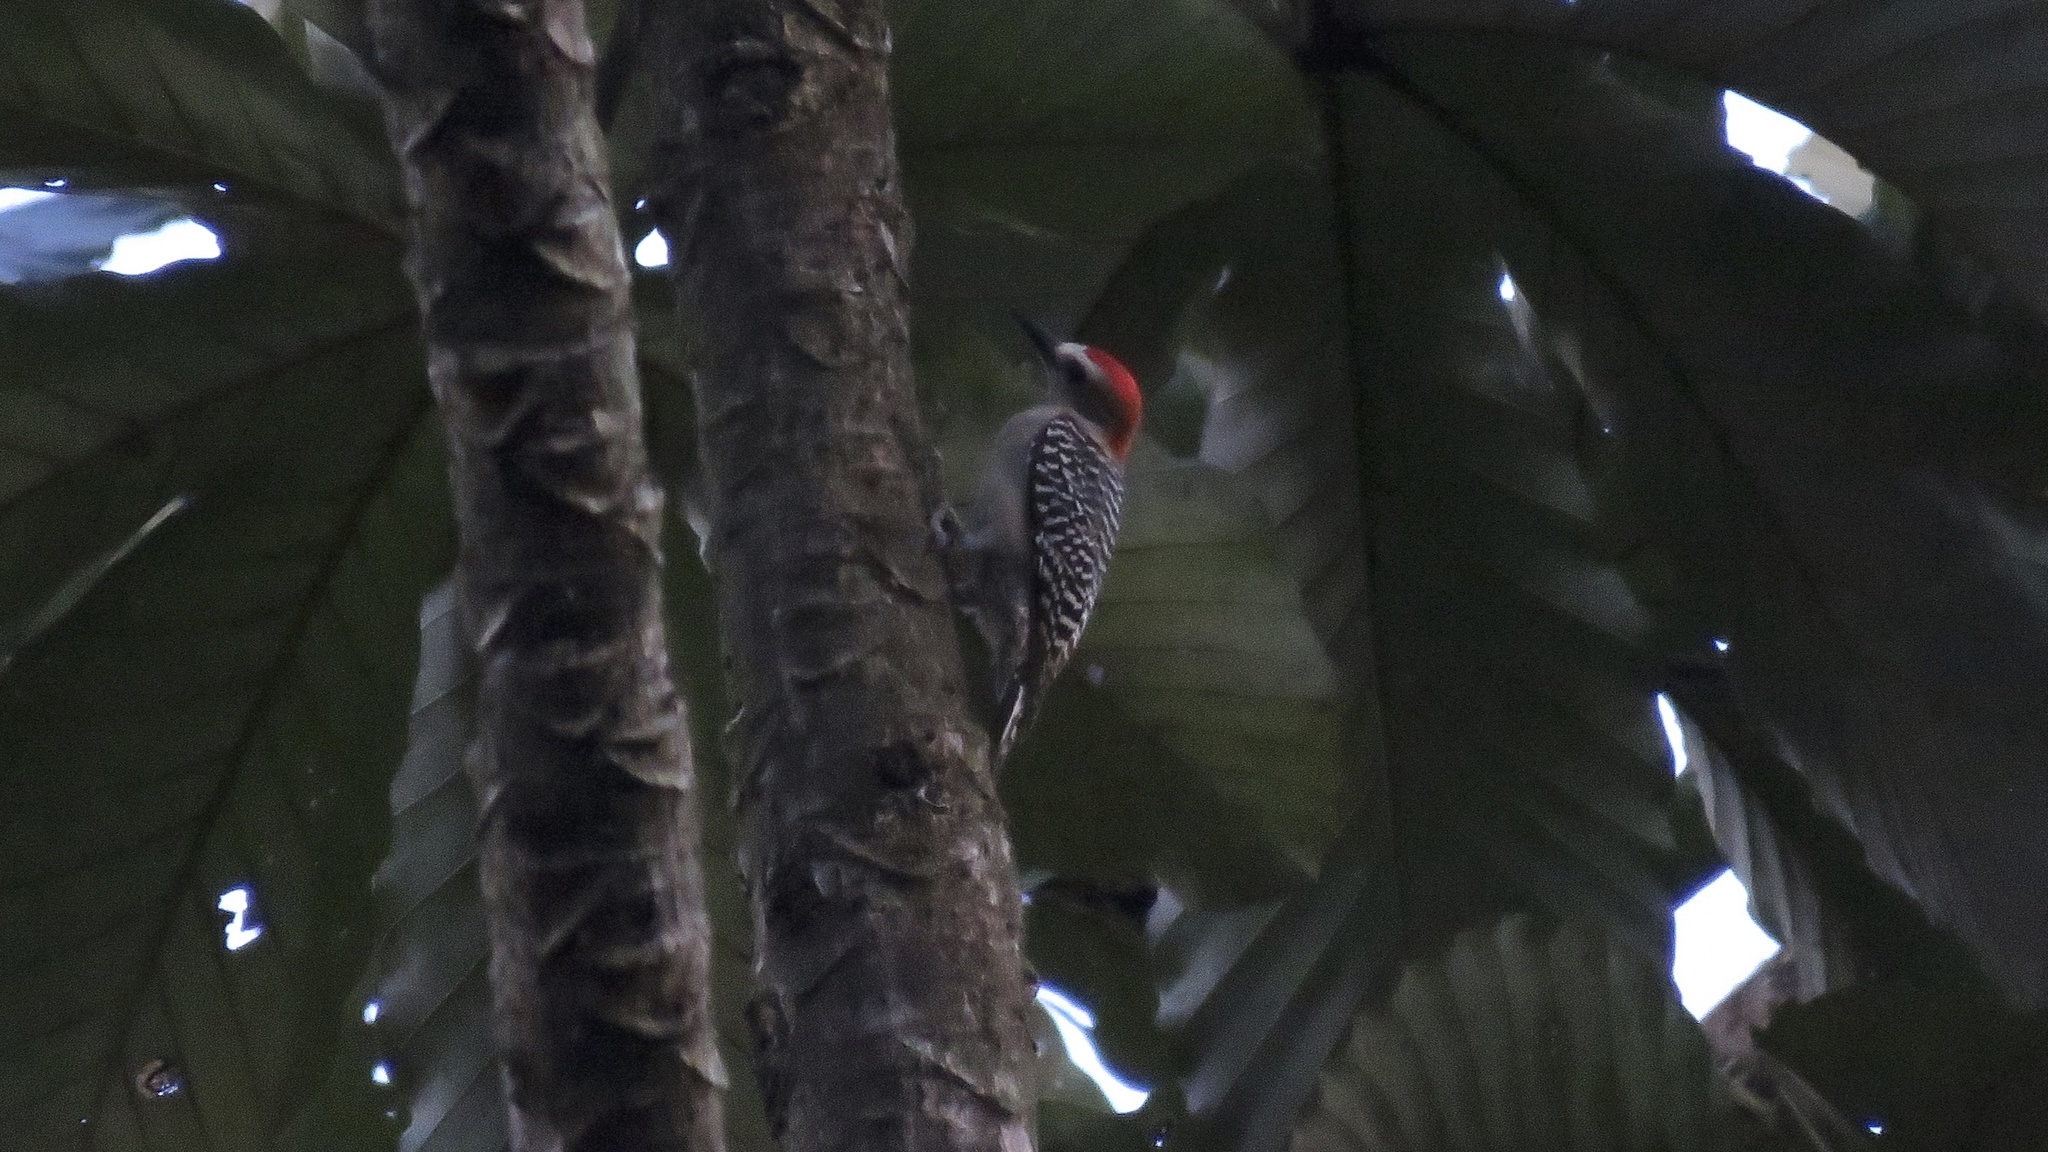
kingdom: Animalia
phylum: Chordata
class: Aves
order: Piciformes
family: Picidae
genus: Melanerpes
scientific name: Melanerpes rubricapillus
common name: Red-crowned woodpecker
